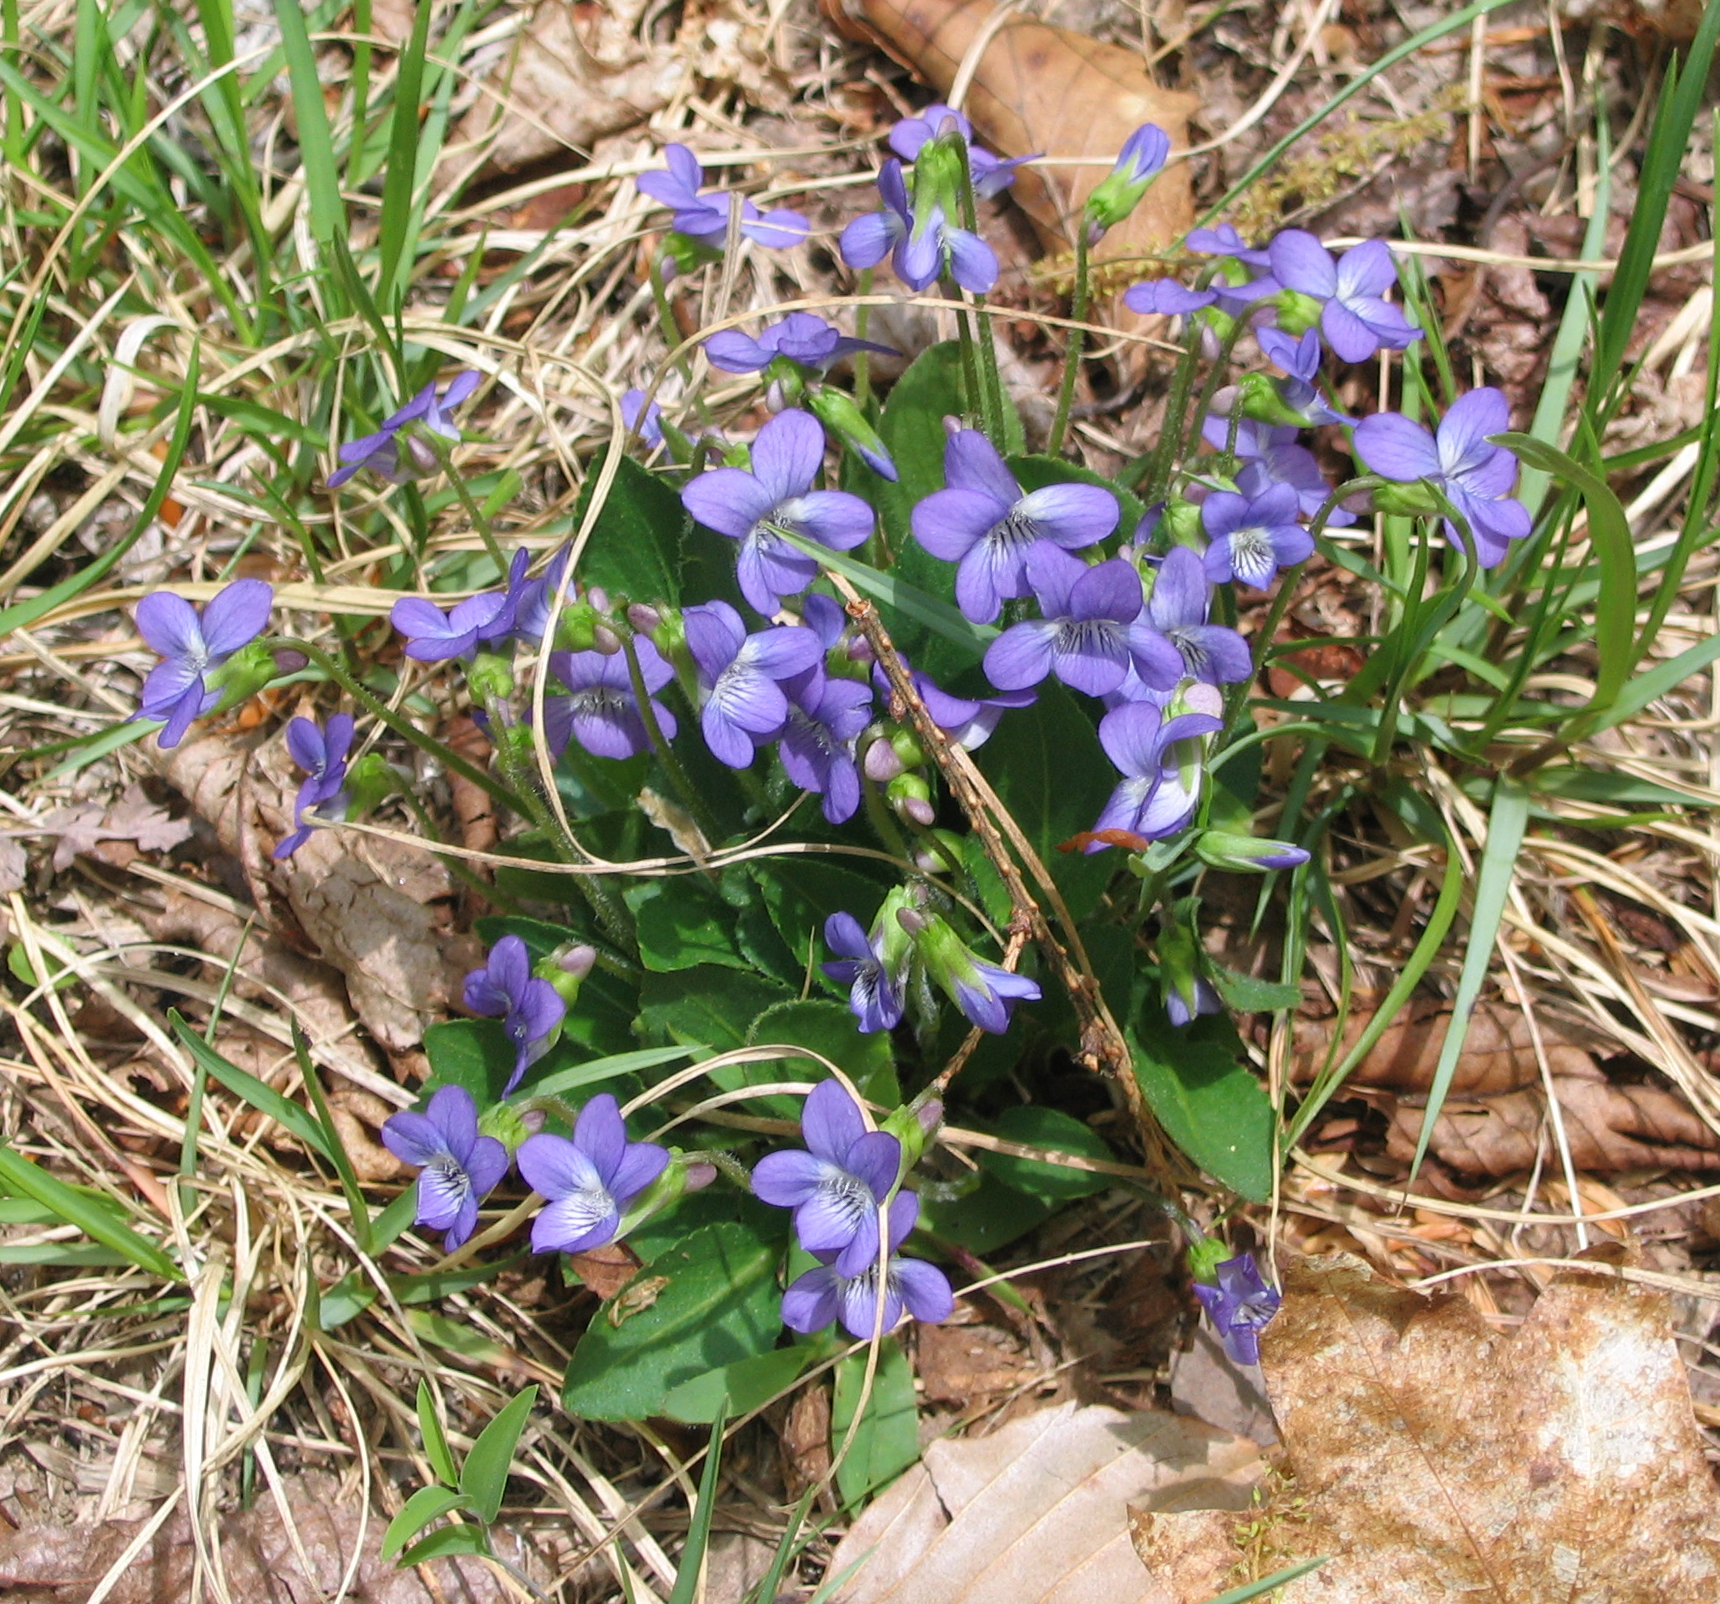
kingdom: Plantae
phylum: Tracheophyta
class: Magnoliopsida
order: Malpighiales
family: Violaceae
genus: Viola
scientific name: Viola fimbriatula
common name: Sand violet
